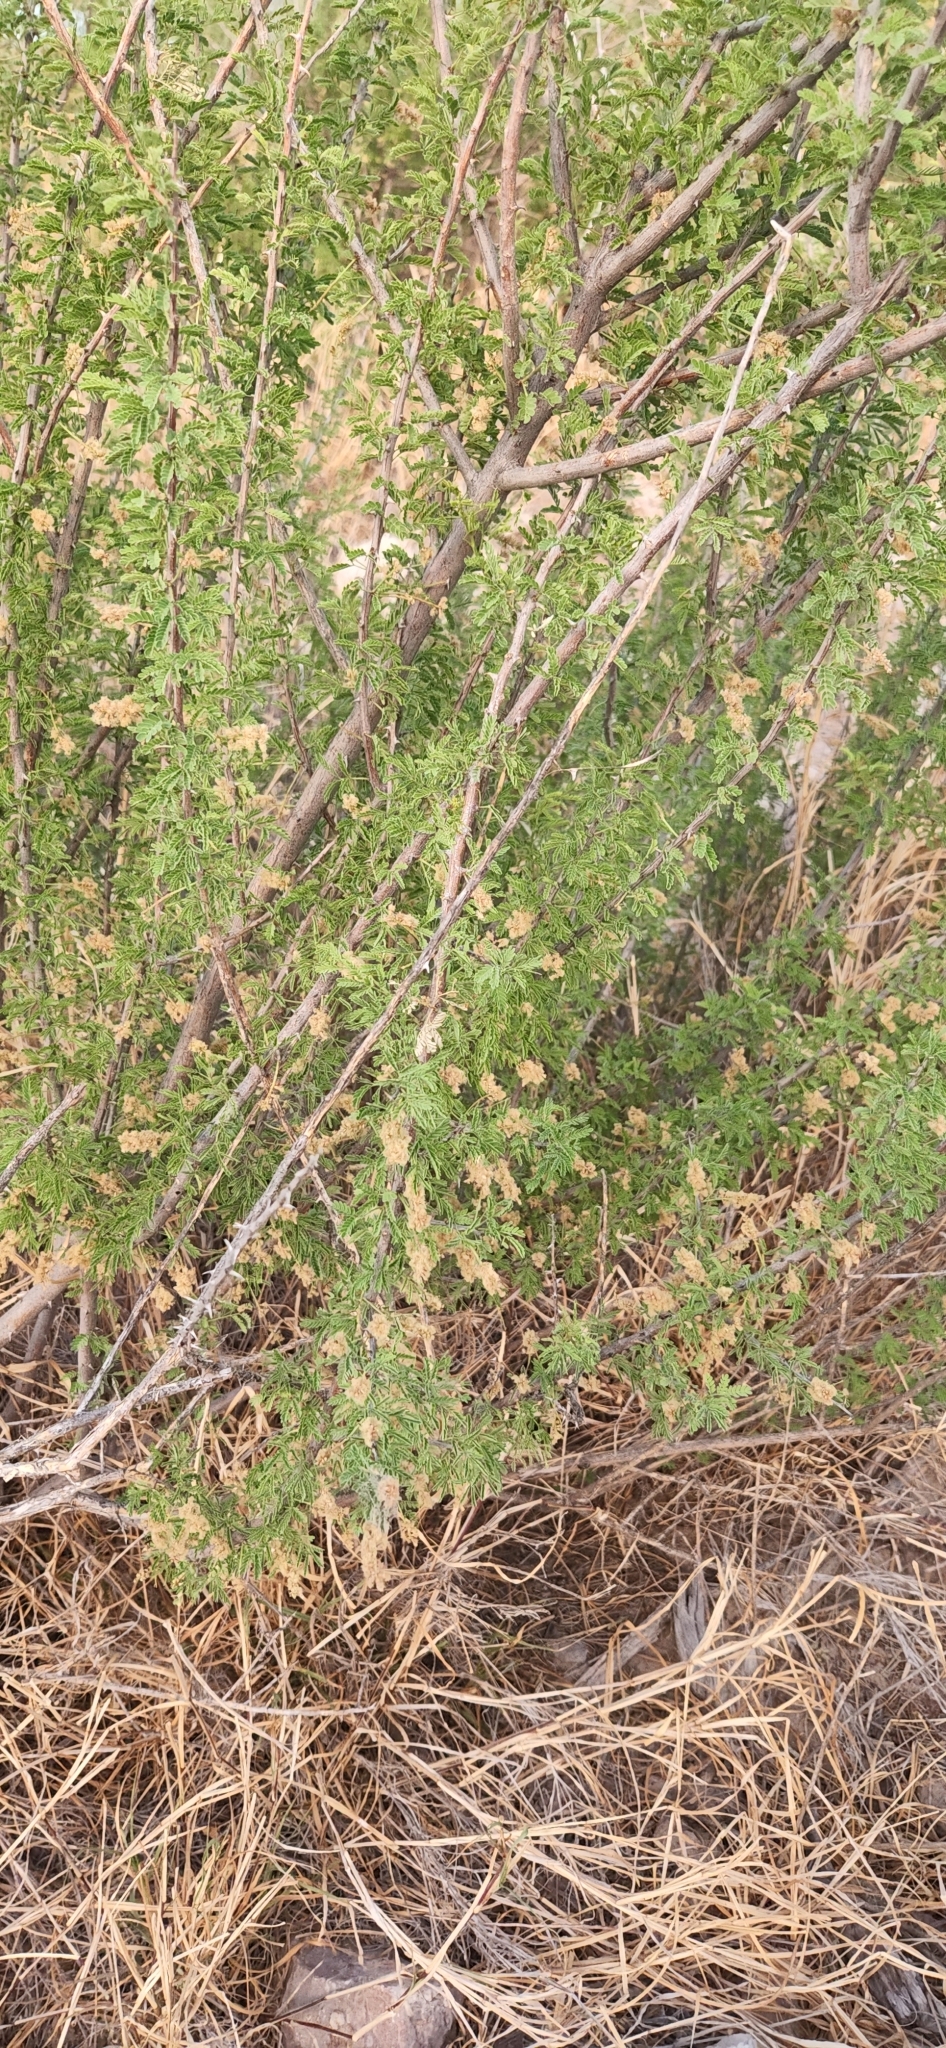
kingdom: Plantae
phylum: Tracheophyta
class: Magnoliopsida
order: Fabales
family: Fabaceae
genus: Senegalia
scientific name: Senegalia greggii
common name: Texas-mimosa
